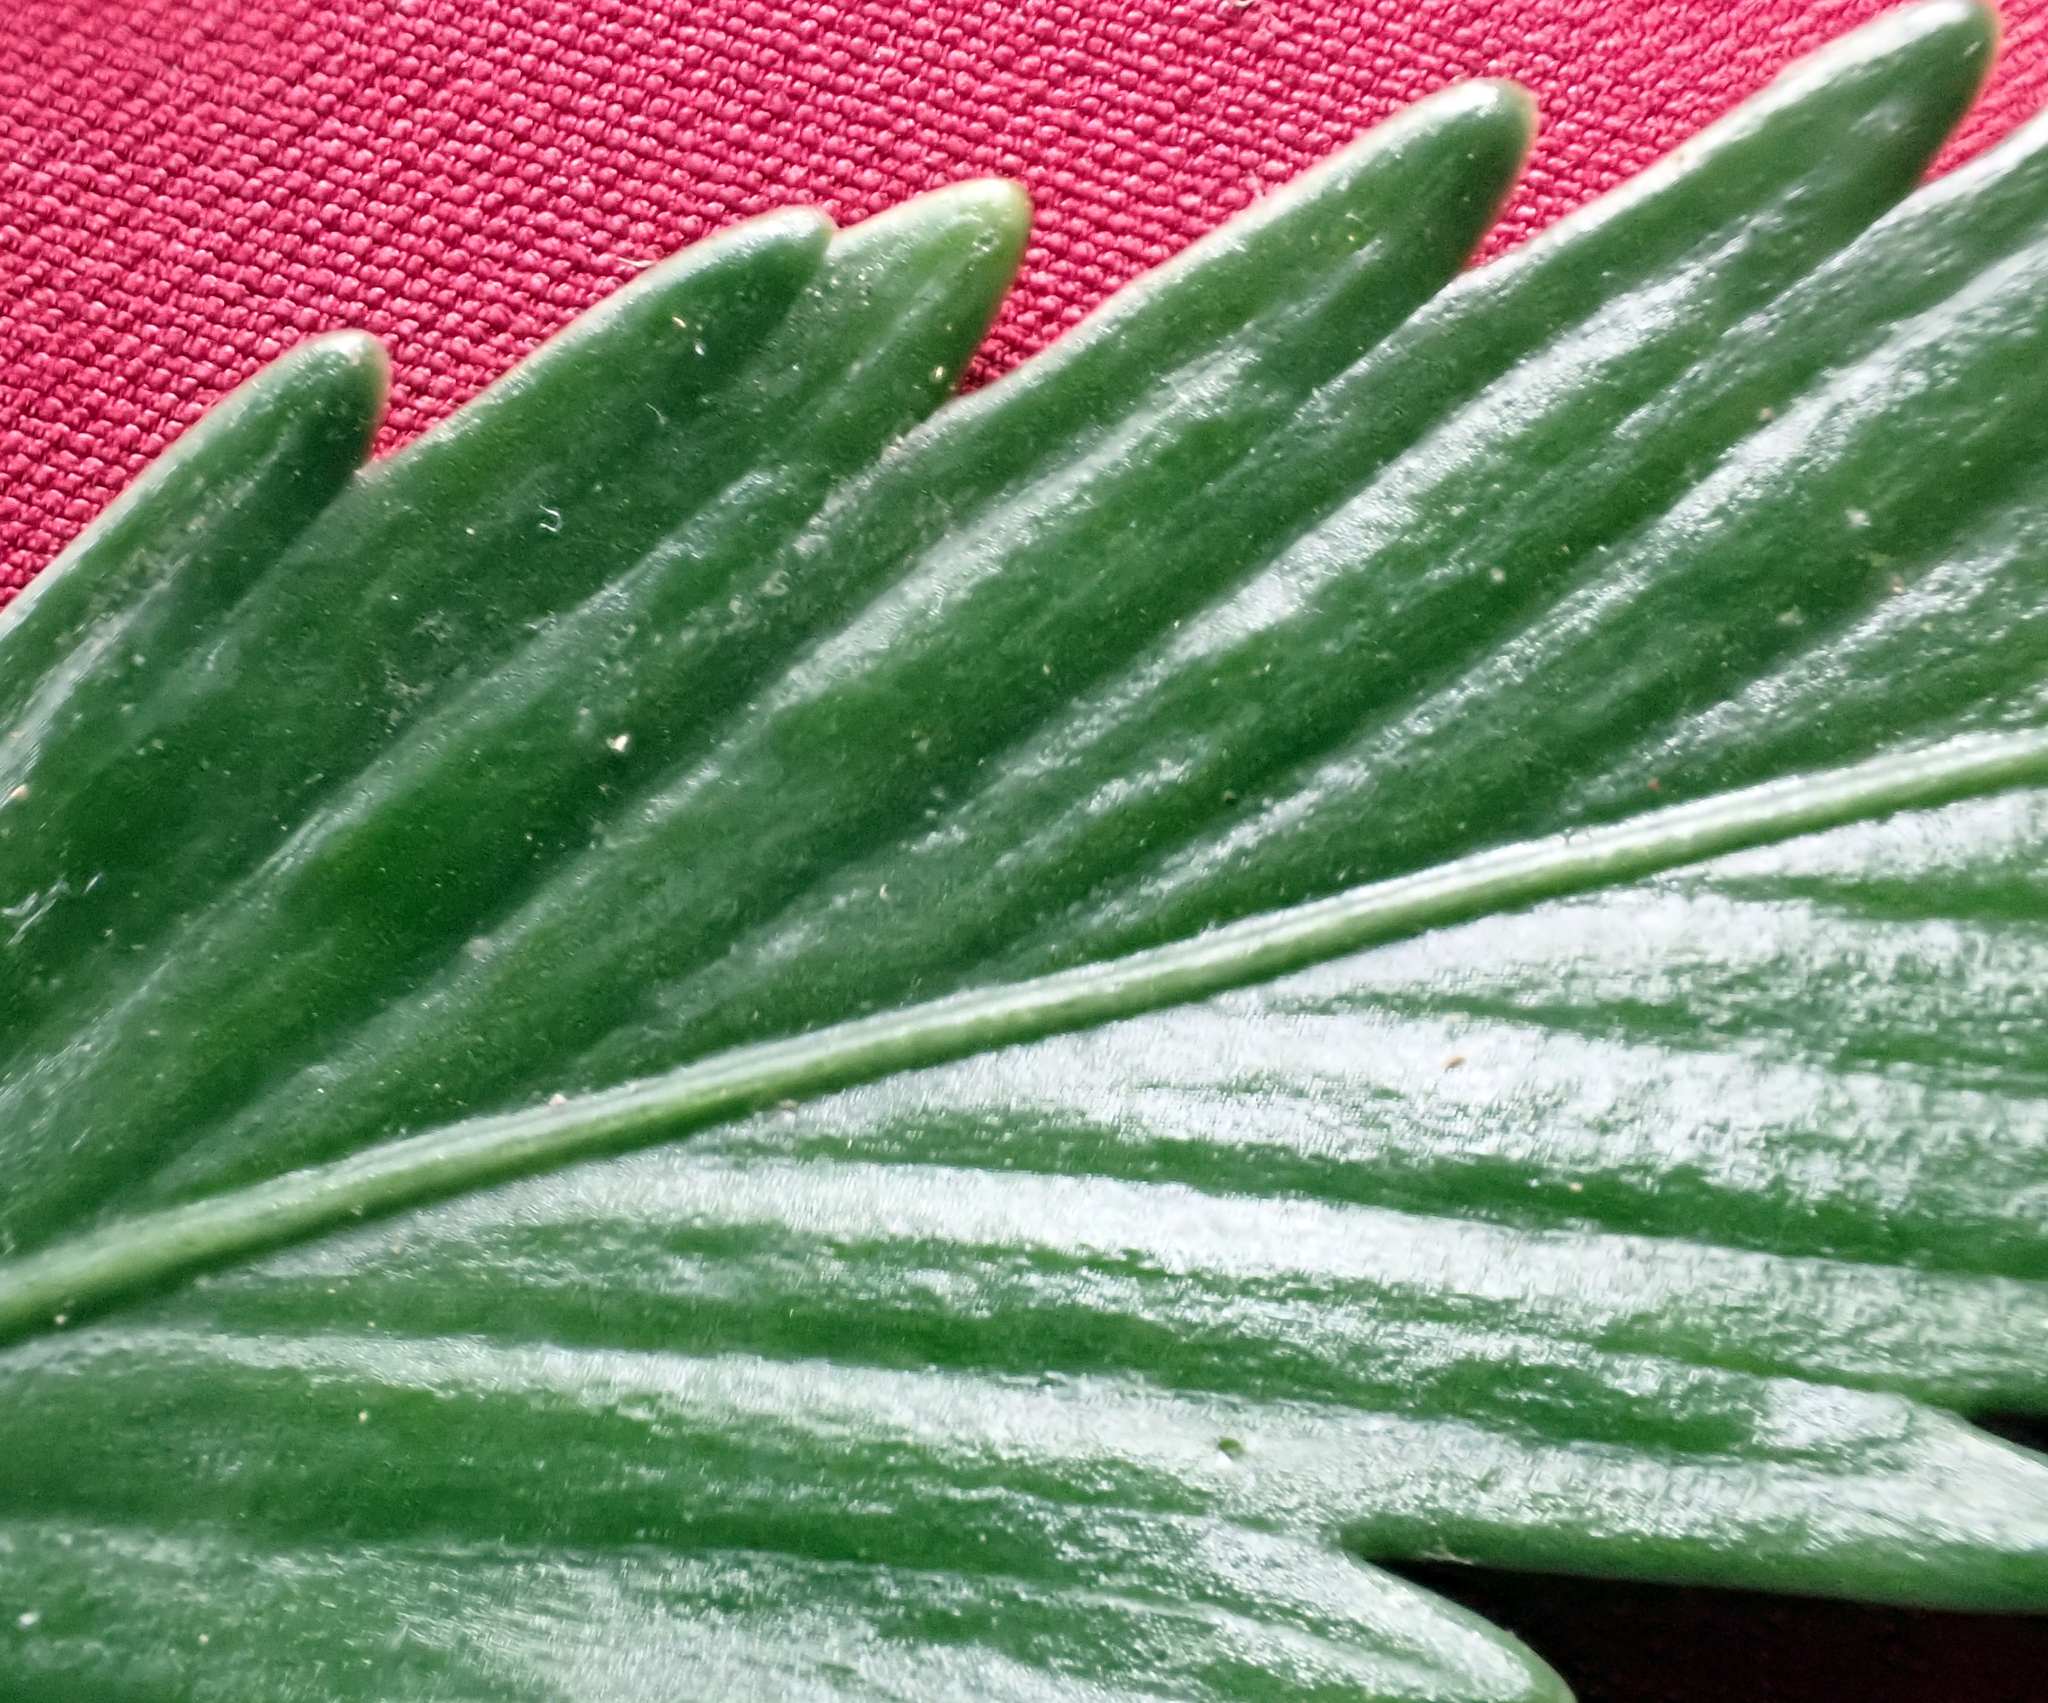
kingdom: Plantae
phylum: Tracheophyta
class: Polypodiopsida
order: Polypodiales
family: Aspleniaceae
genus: Asplenium
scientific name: Asplenium scleroprium
